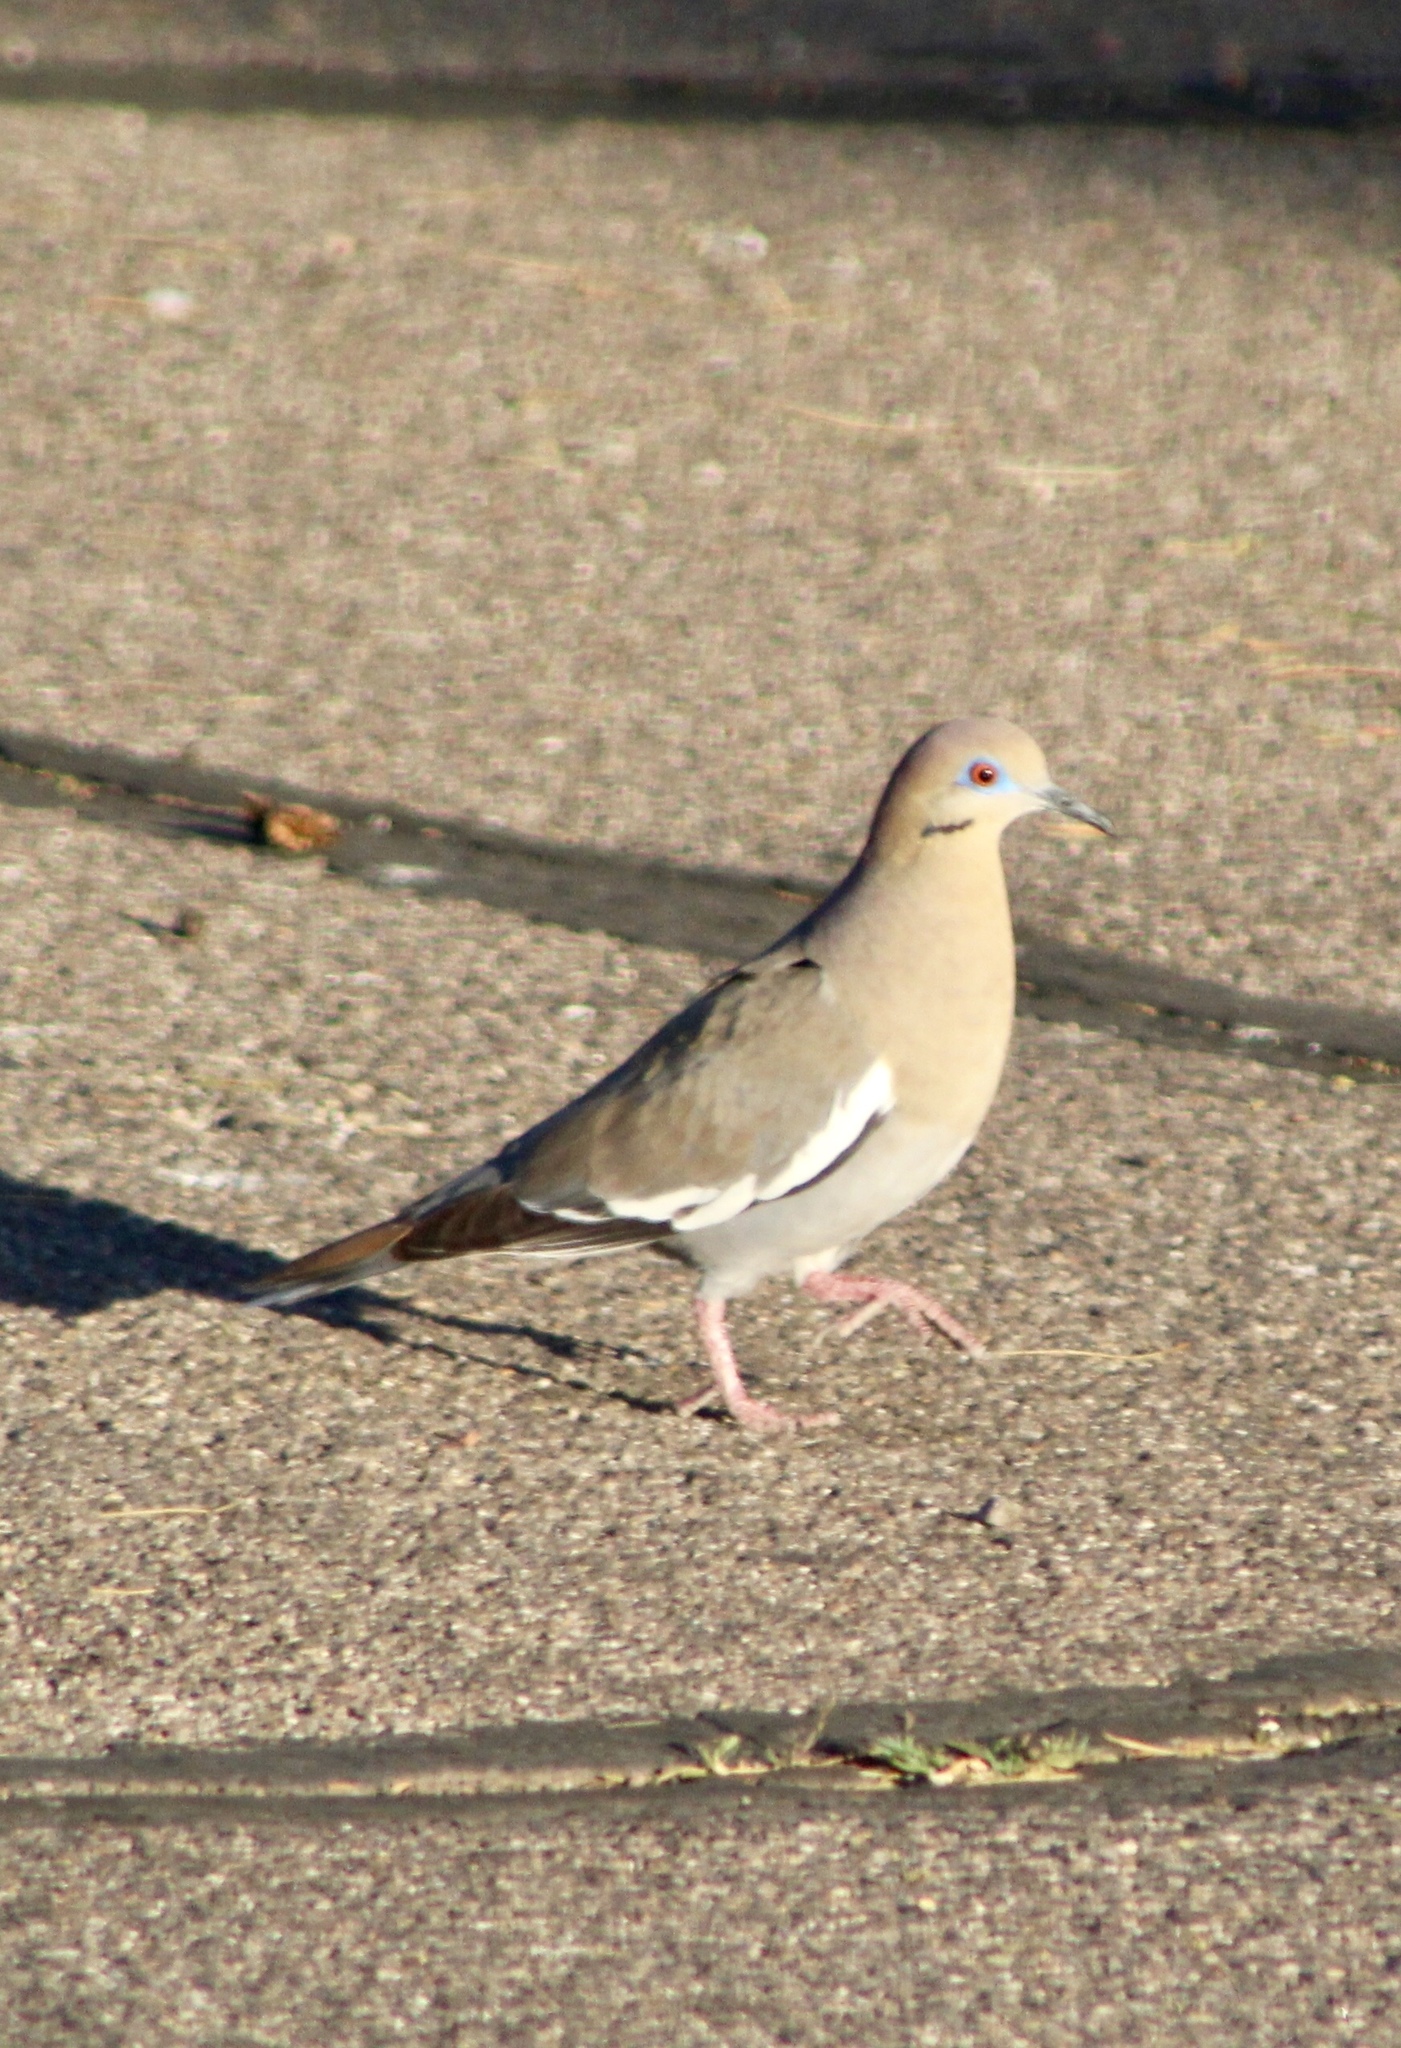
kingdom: Animalia
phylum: Chordata
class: Aves
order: Columbiformes
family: Columbidae
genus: Zenaida
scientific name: Zenaida asiatica
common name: White-winged dove
